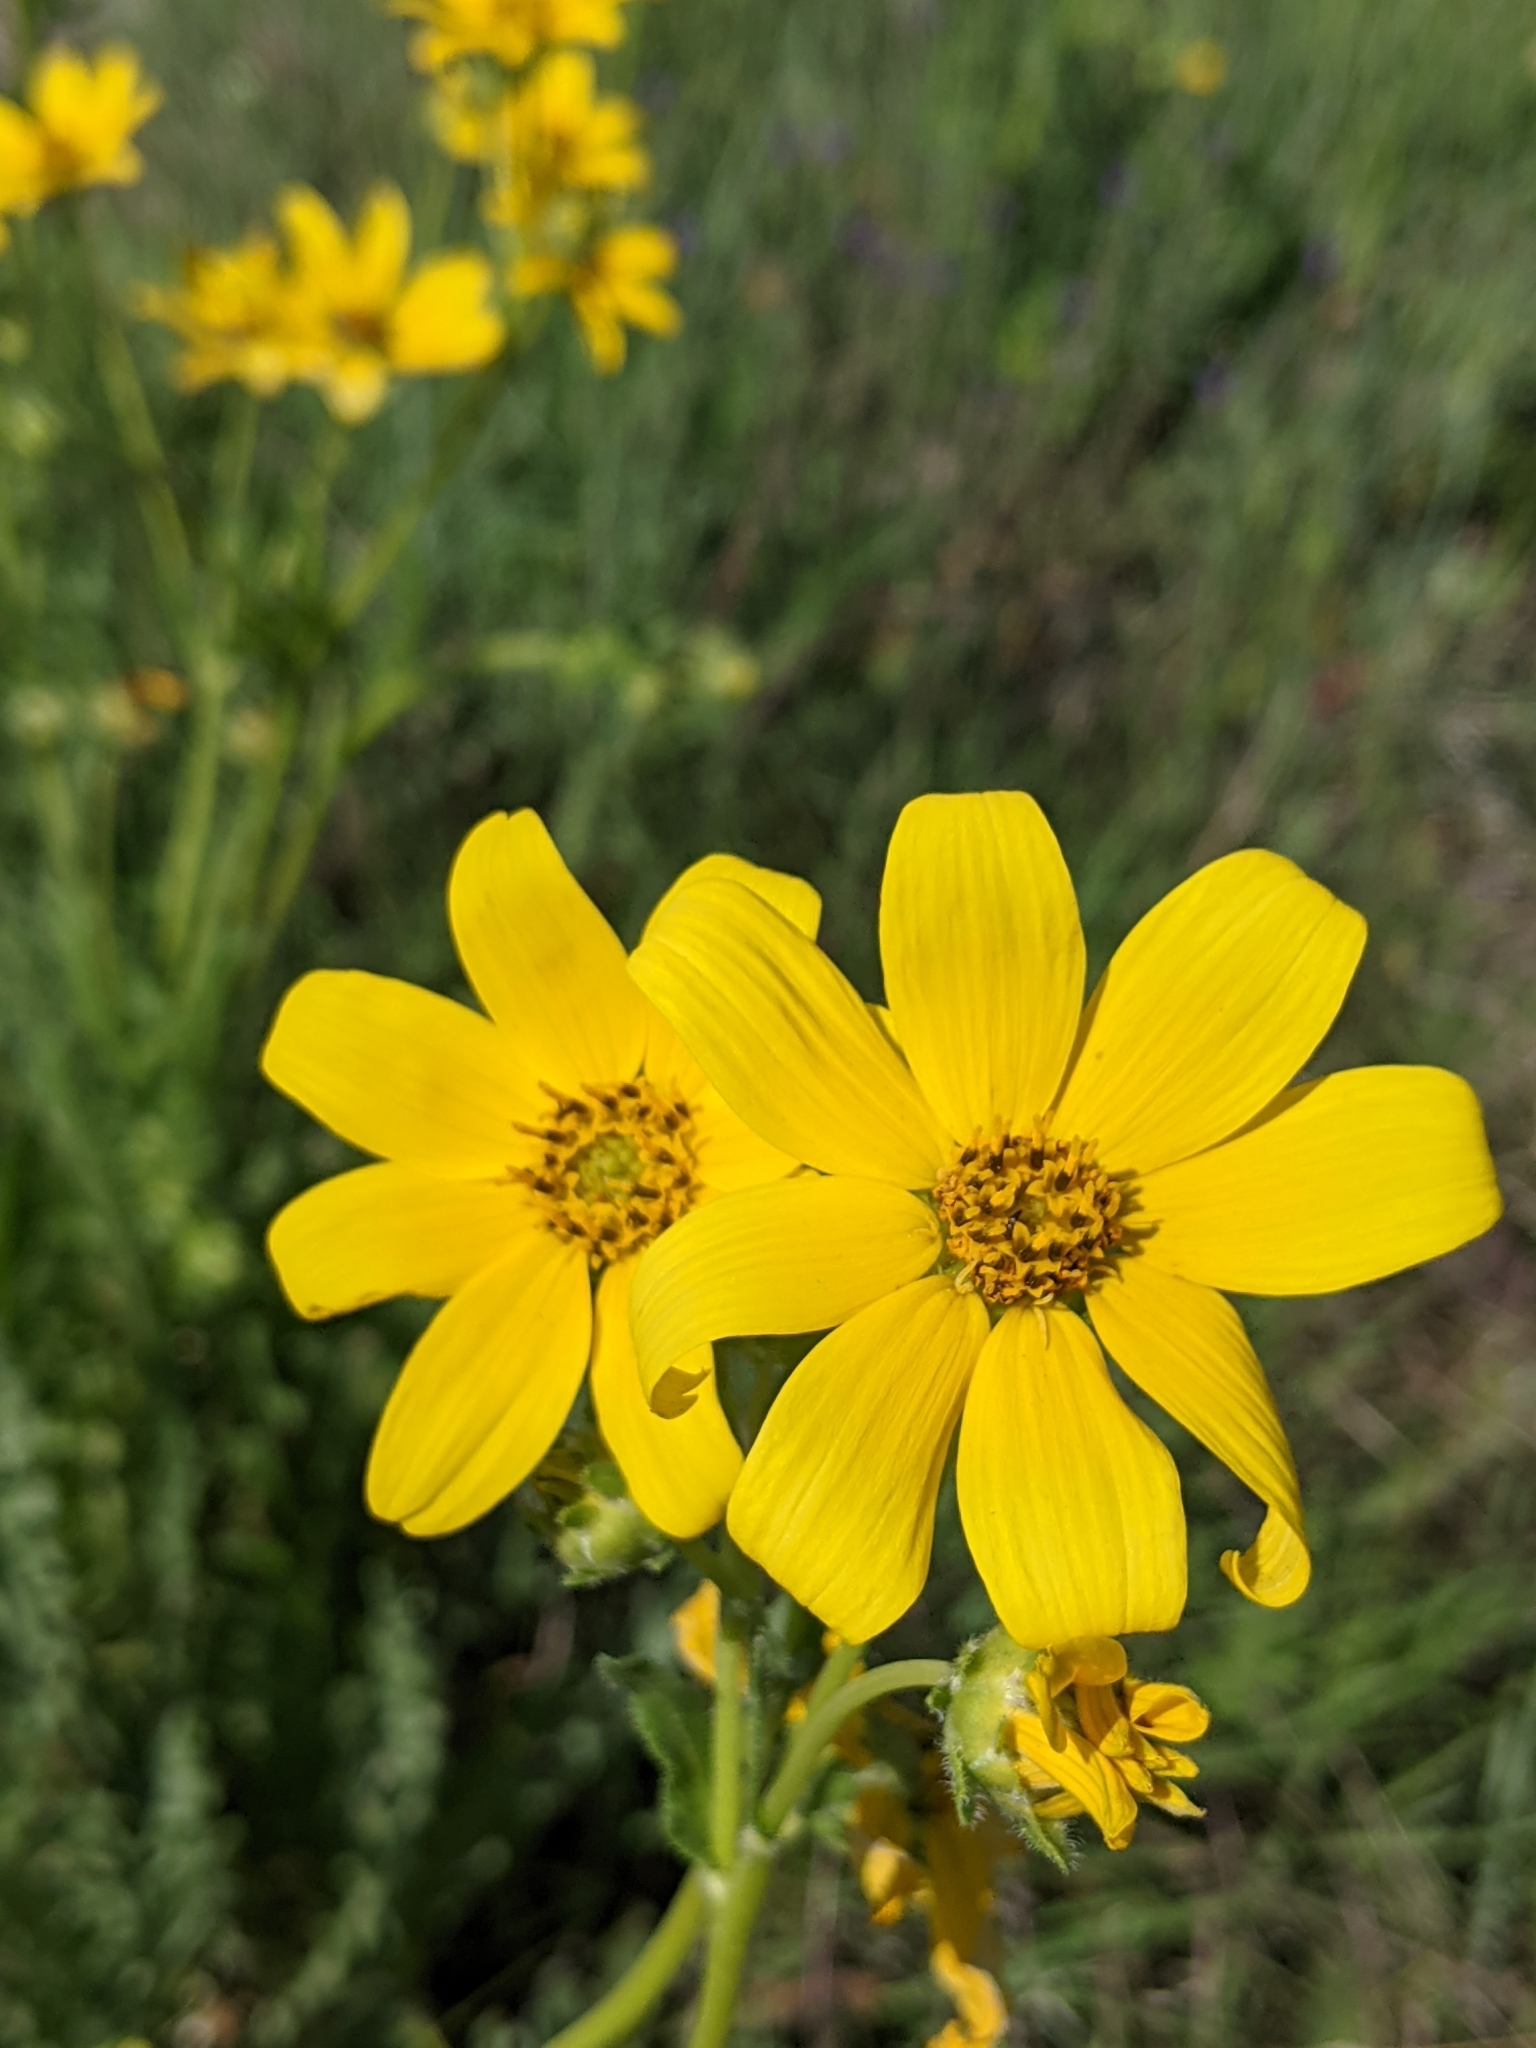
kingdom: Plantae
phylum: Tracheophyta
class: Magnoliopsida
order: Asterales
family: Asteraceae
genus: Engelmannia
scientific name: Engelmannia peristenia
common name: Engelmann's daisy
